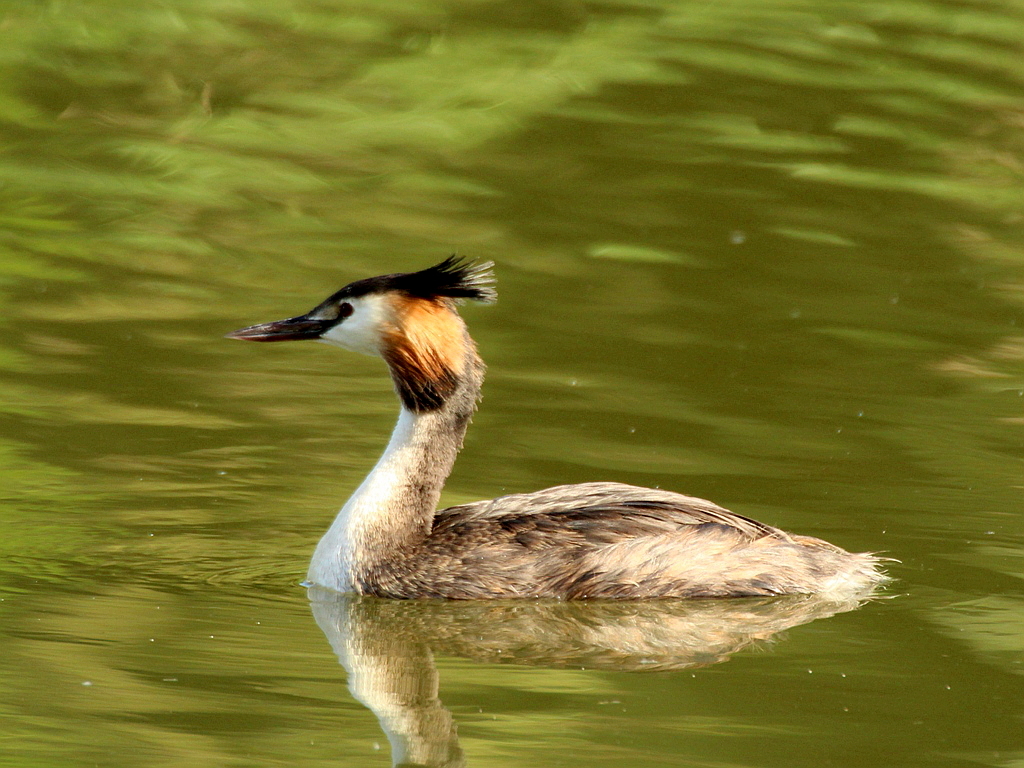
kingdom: Animalia
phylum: Chordata
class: Aves
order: Podicipediformes
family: Podicipedidae
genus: Podiceps
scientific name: Podiceps cristatus
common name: Great crested grebe
